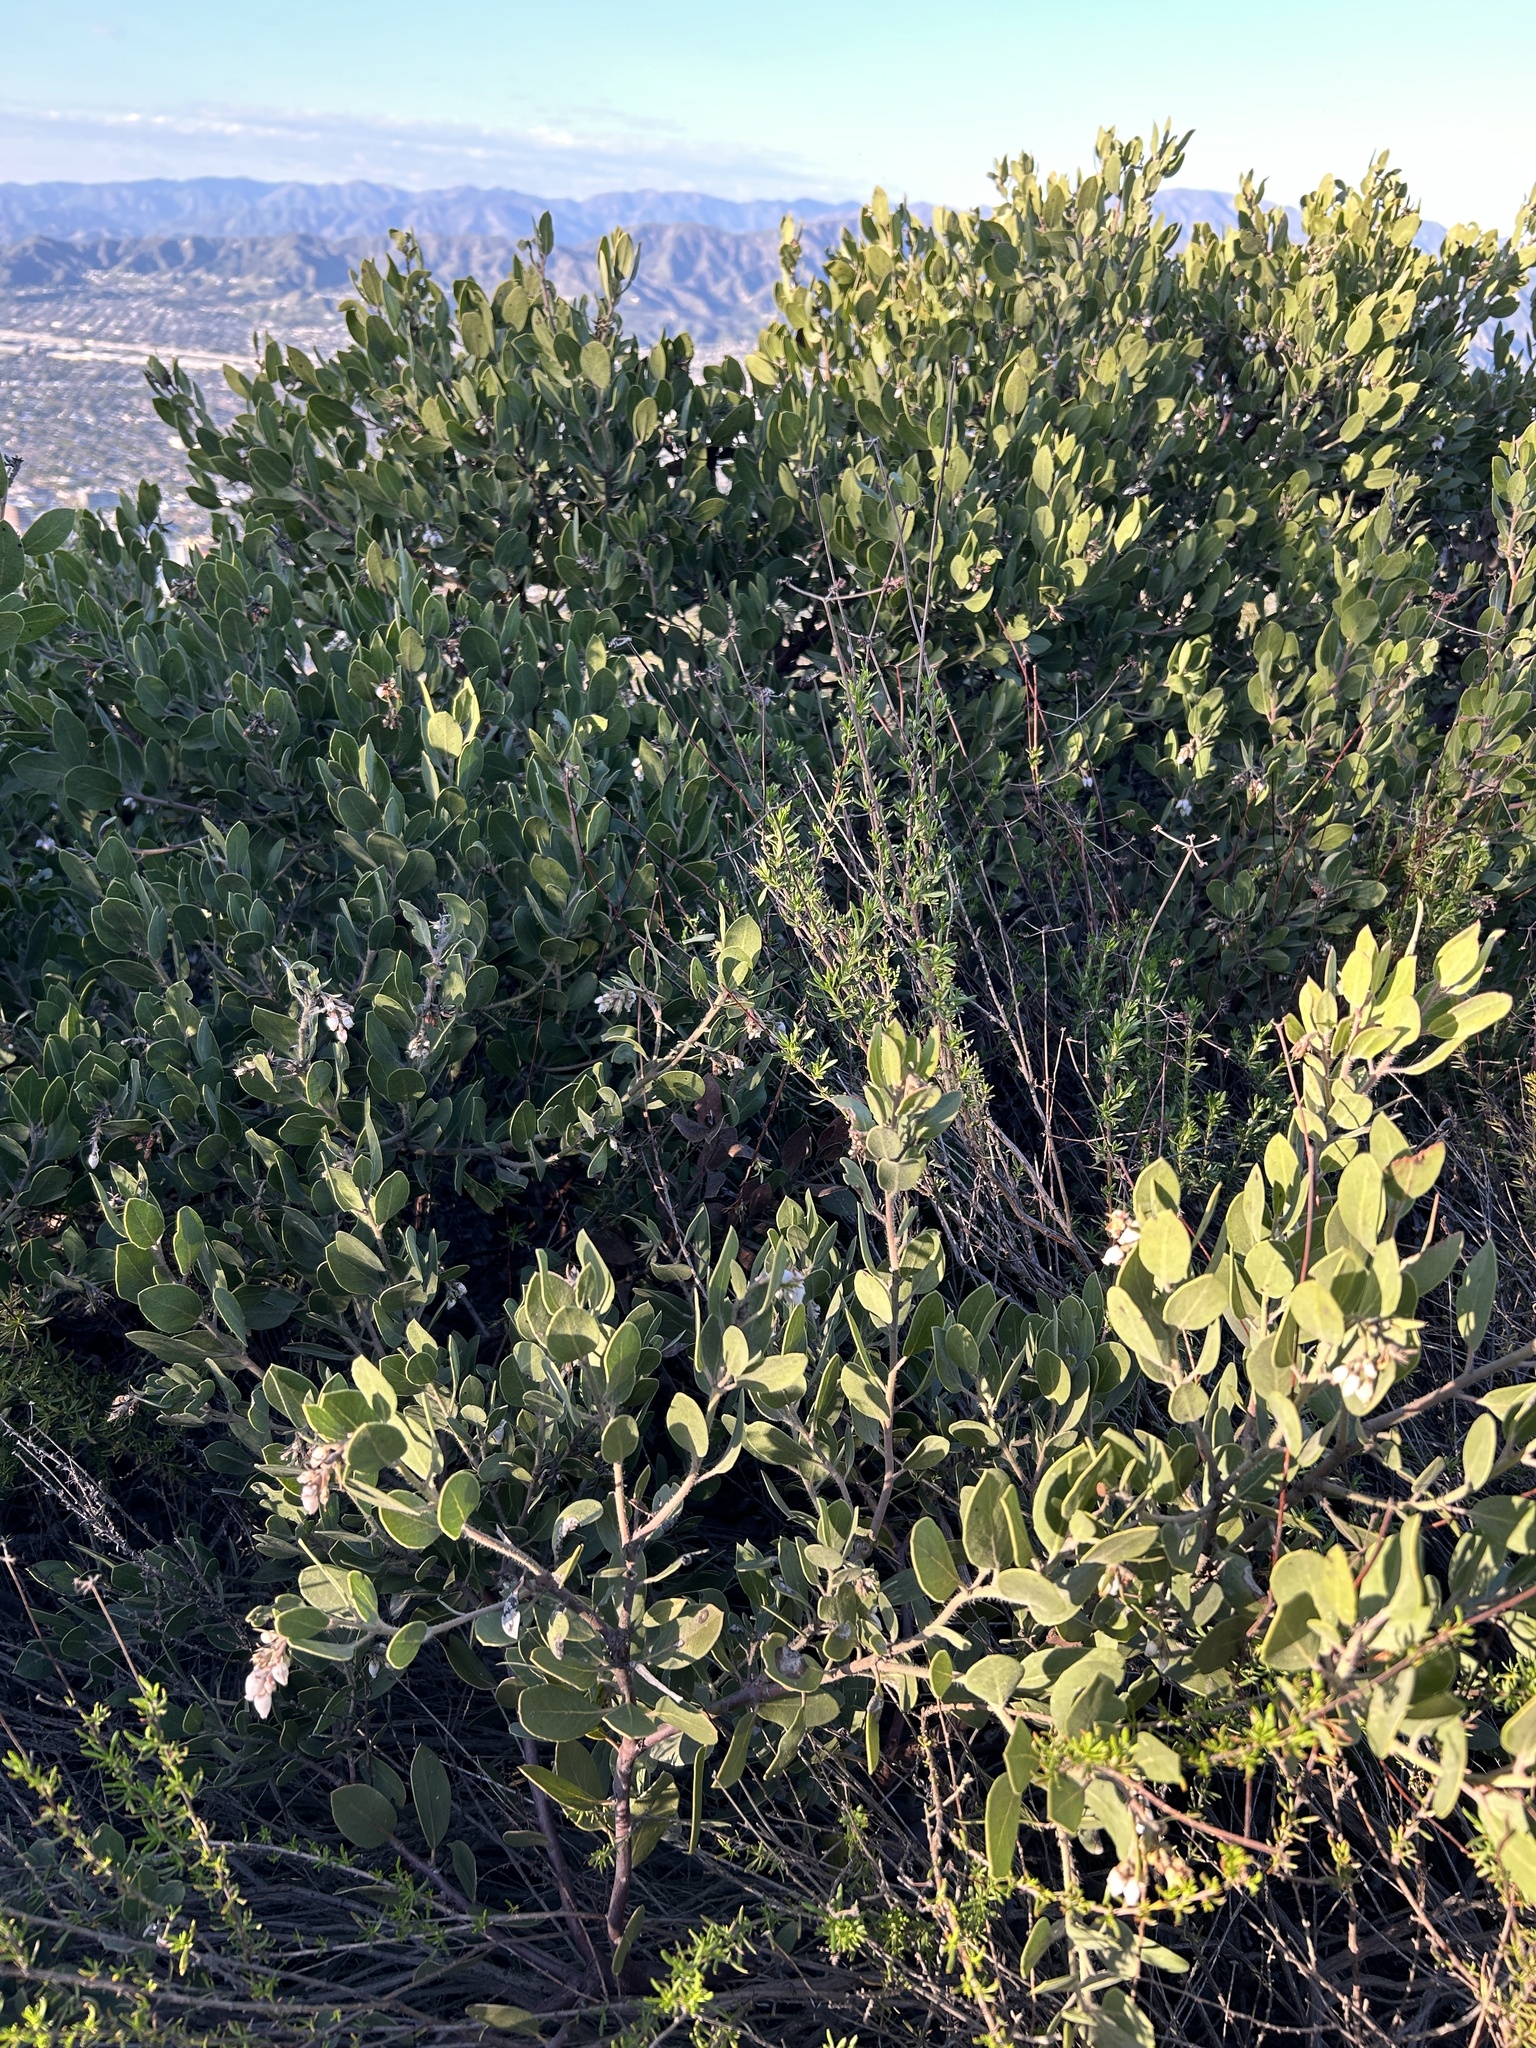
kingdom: Plantae
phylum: Tracheophyta
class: Magnoliopsida
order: Ericales
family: Ericaceae
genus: Arctostaphylos
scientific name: Arctostaphylos glandulosa
